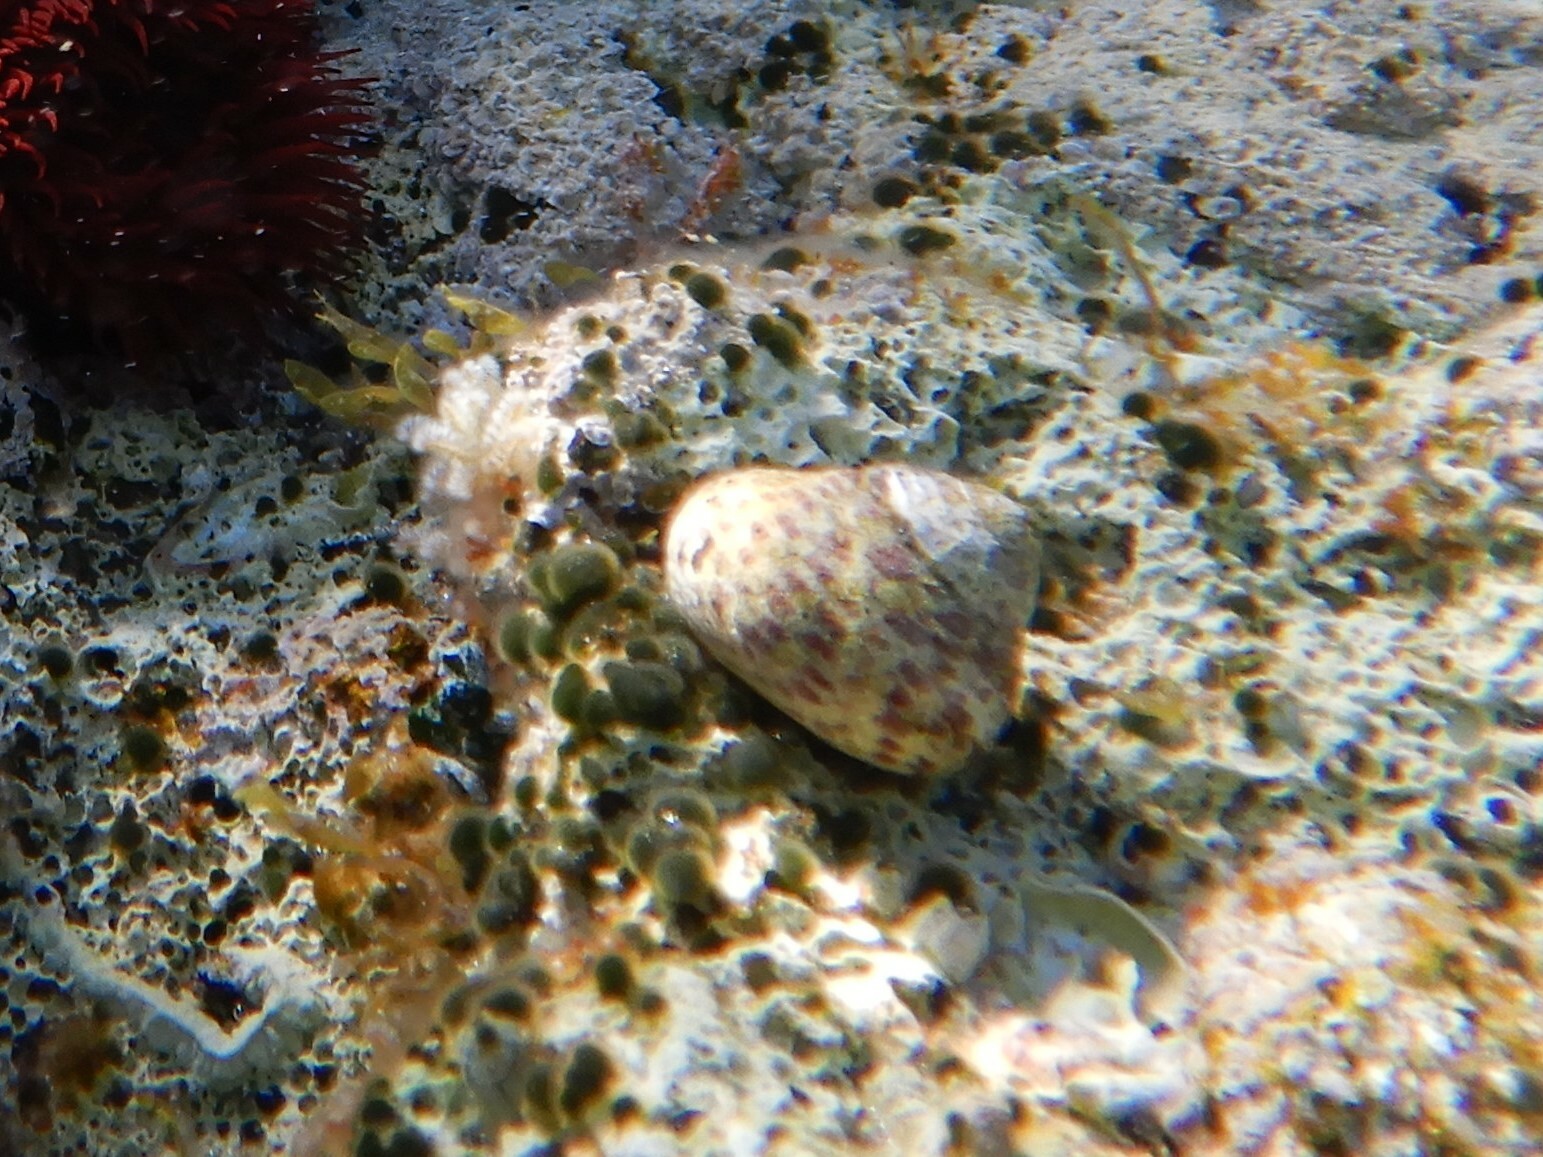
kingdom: Animalia
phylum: Mollusca
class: Gastropoda
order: Trochida
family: Trochidae
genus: Phorcus
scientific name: Phorcus turbinatus
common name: Turbinate monodont
